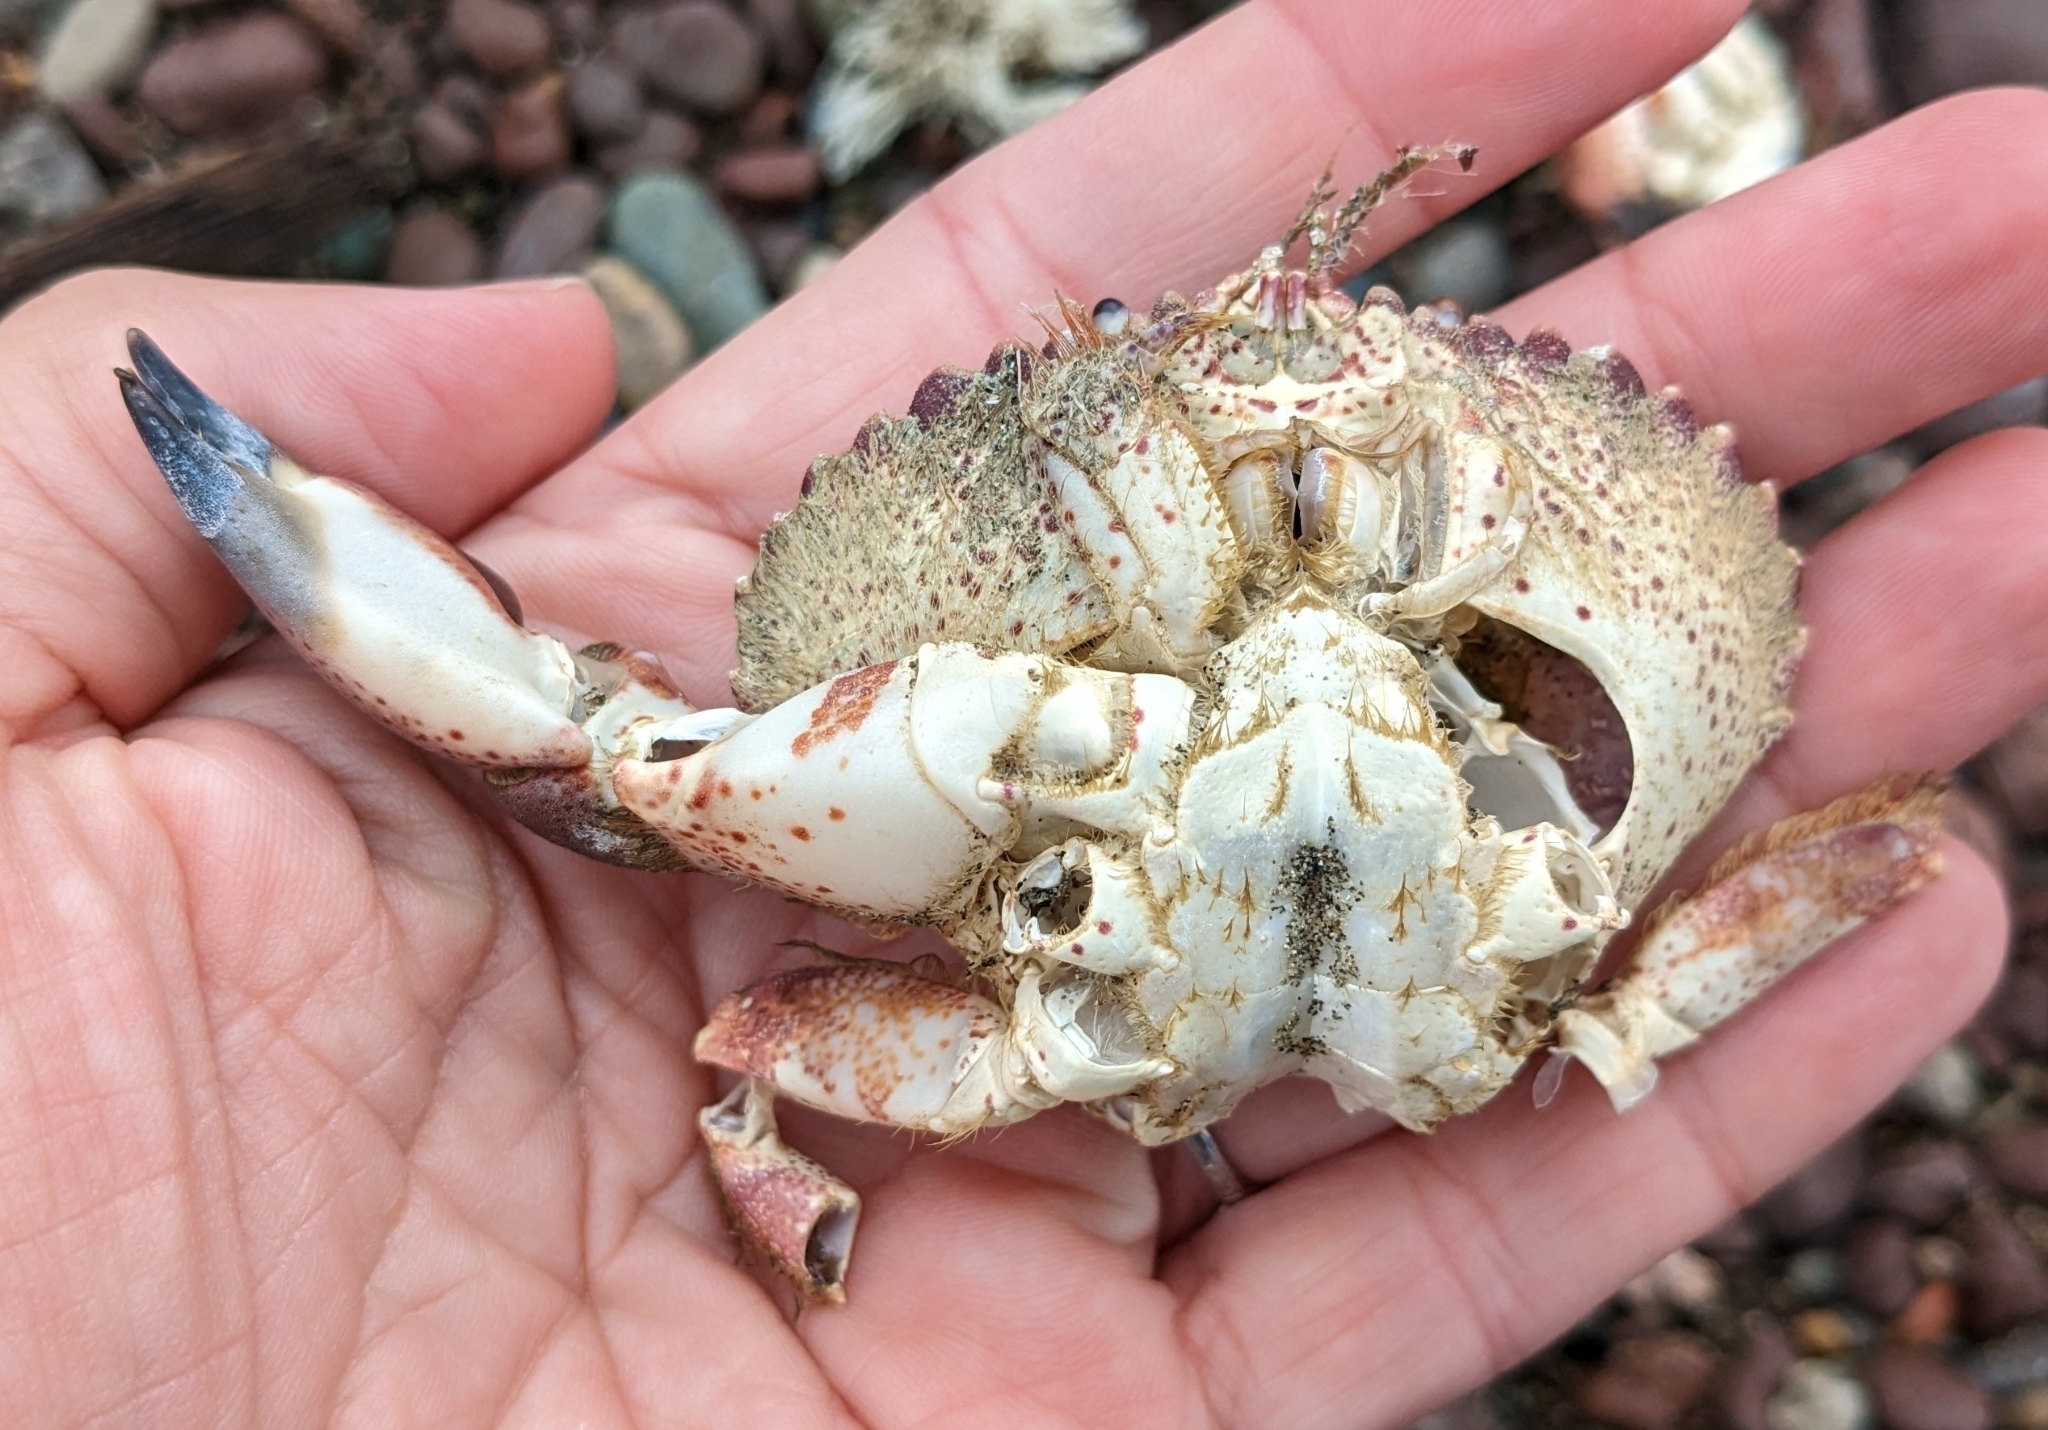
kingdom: Animalia
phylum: Arthropoda
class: Malacostraca
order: Decapoda
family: Cancridae
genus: Romaleon
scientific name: Romaleon antennarium
